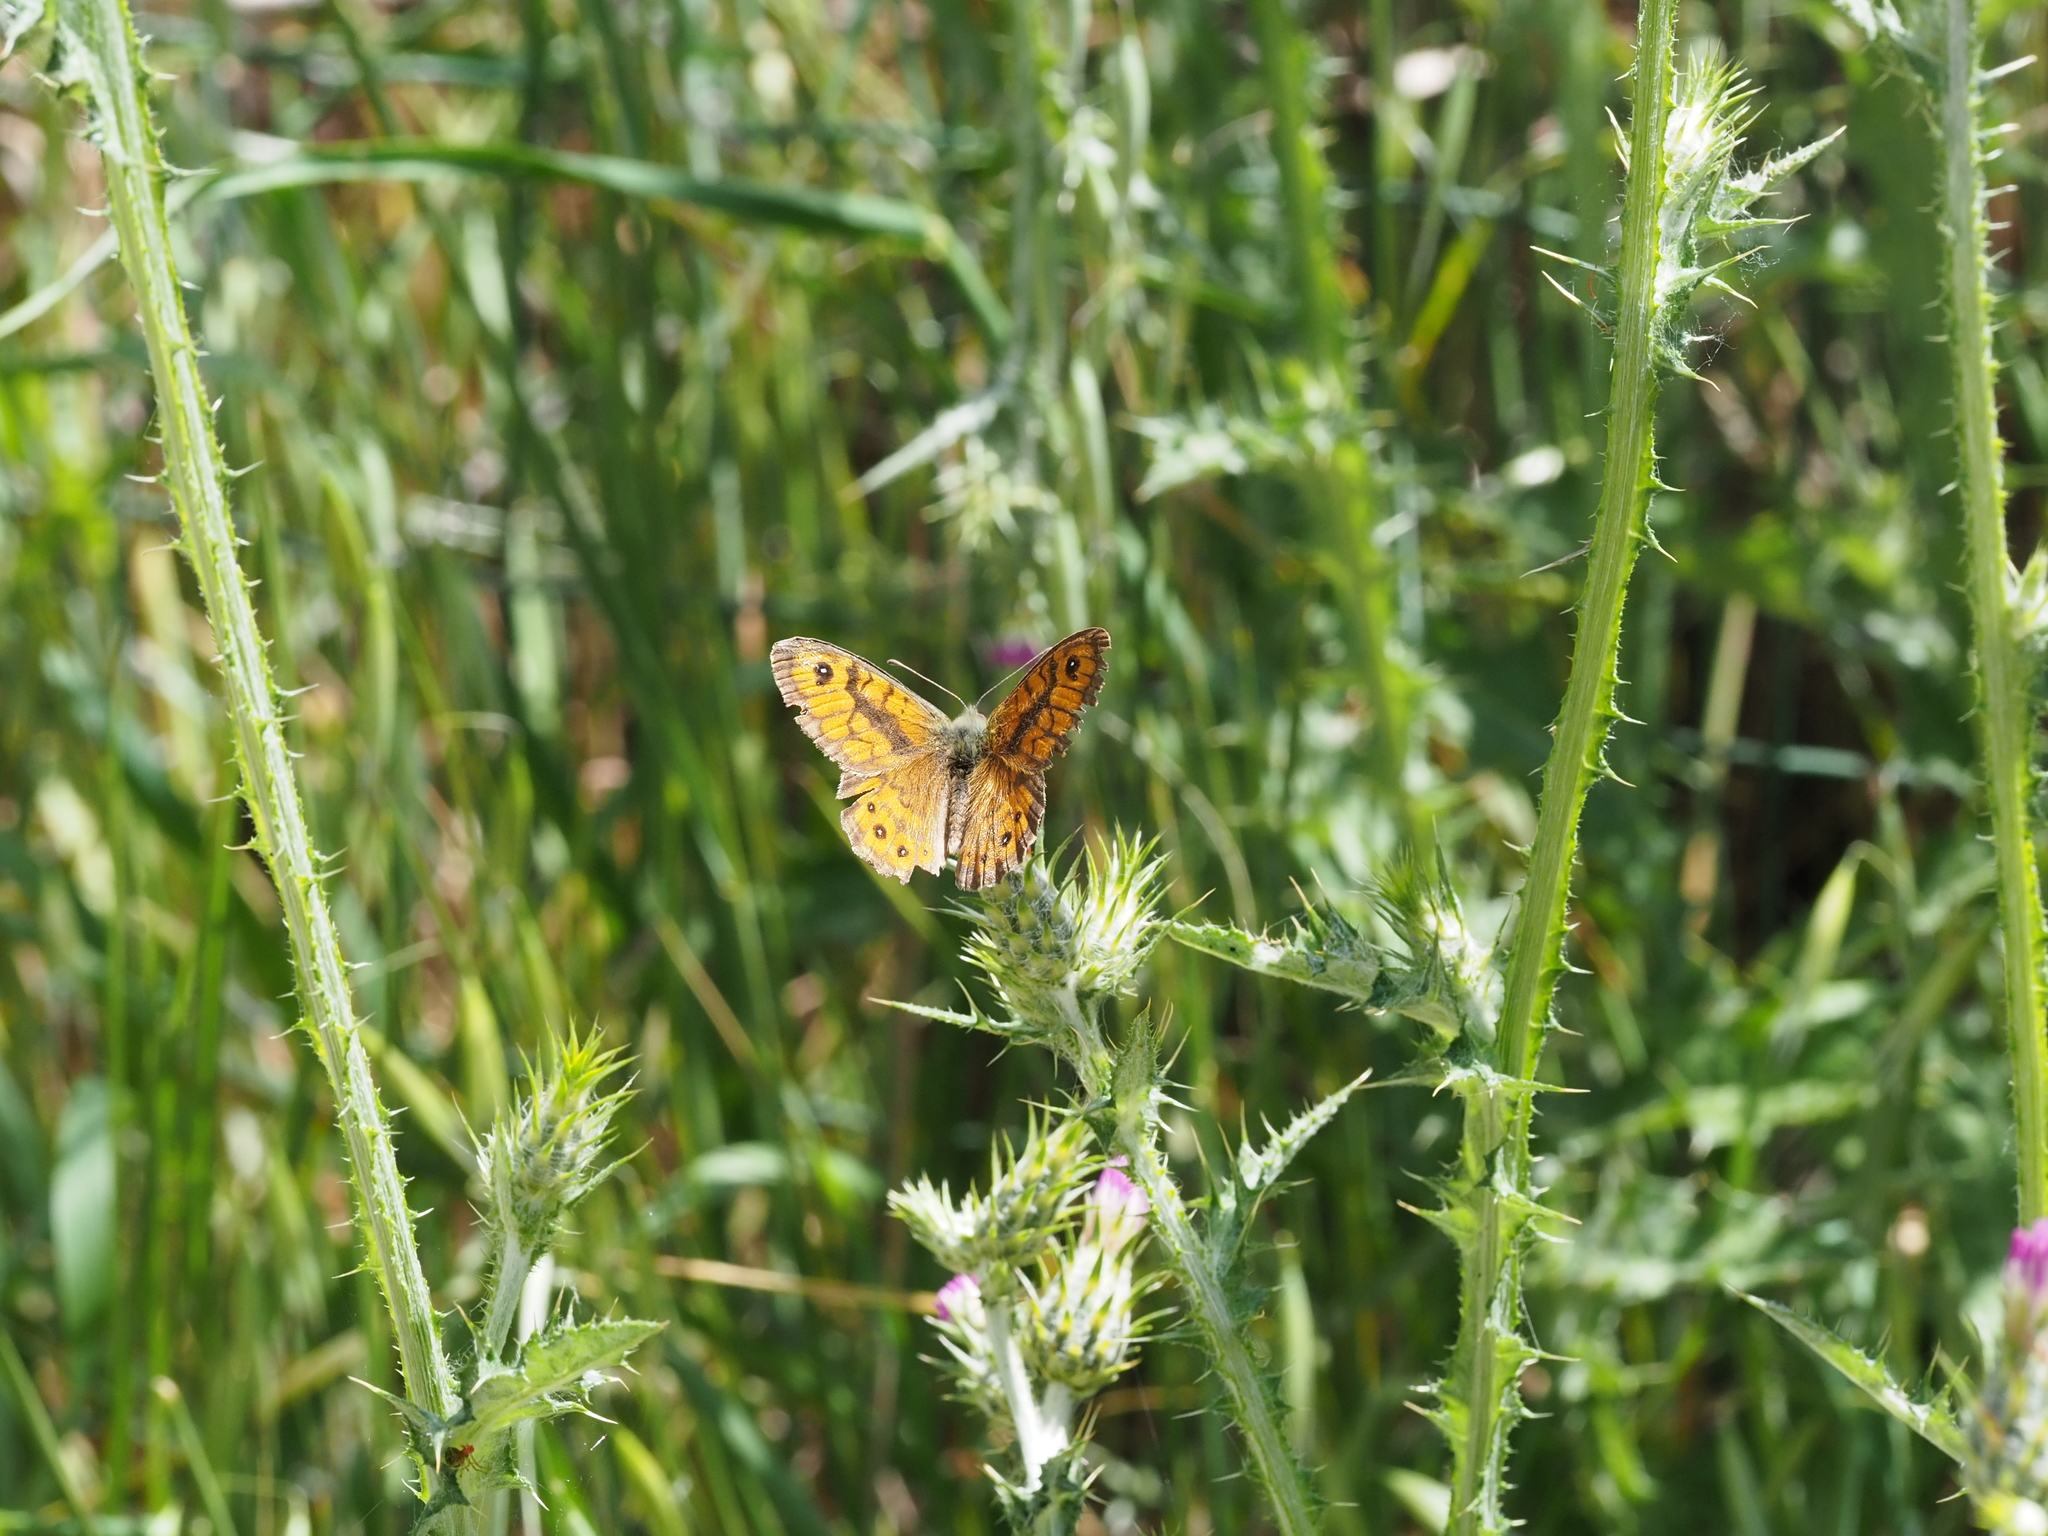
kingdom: Animalia
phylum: Arthropoda
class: Insecta
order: Lepidoptera
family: Nymphalidae
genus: Pararge
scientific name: Pararge Lasiommata megera
